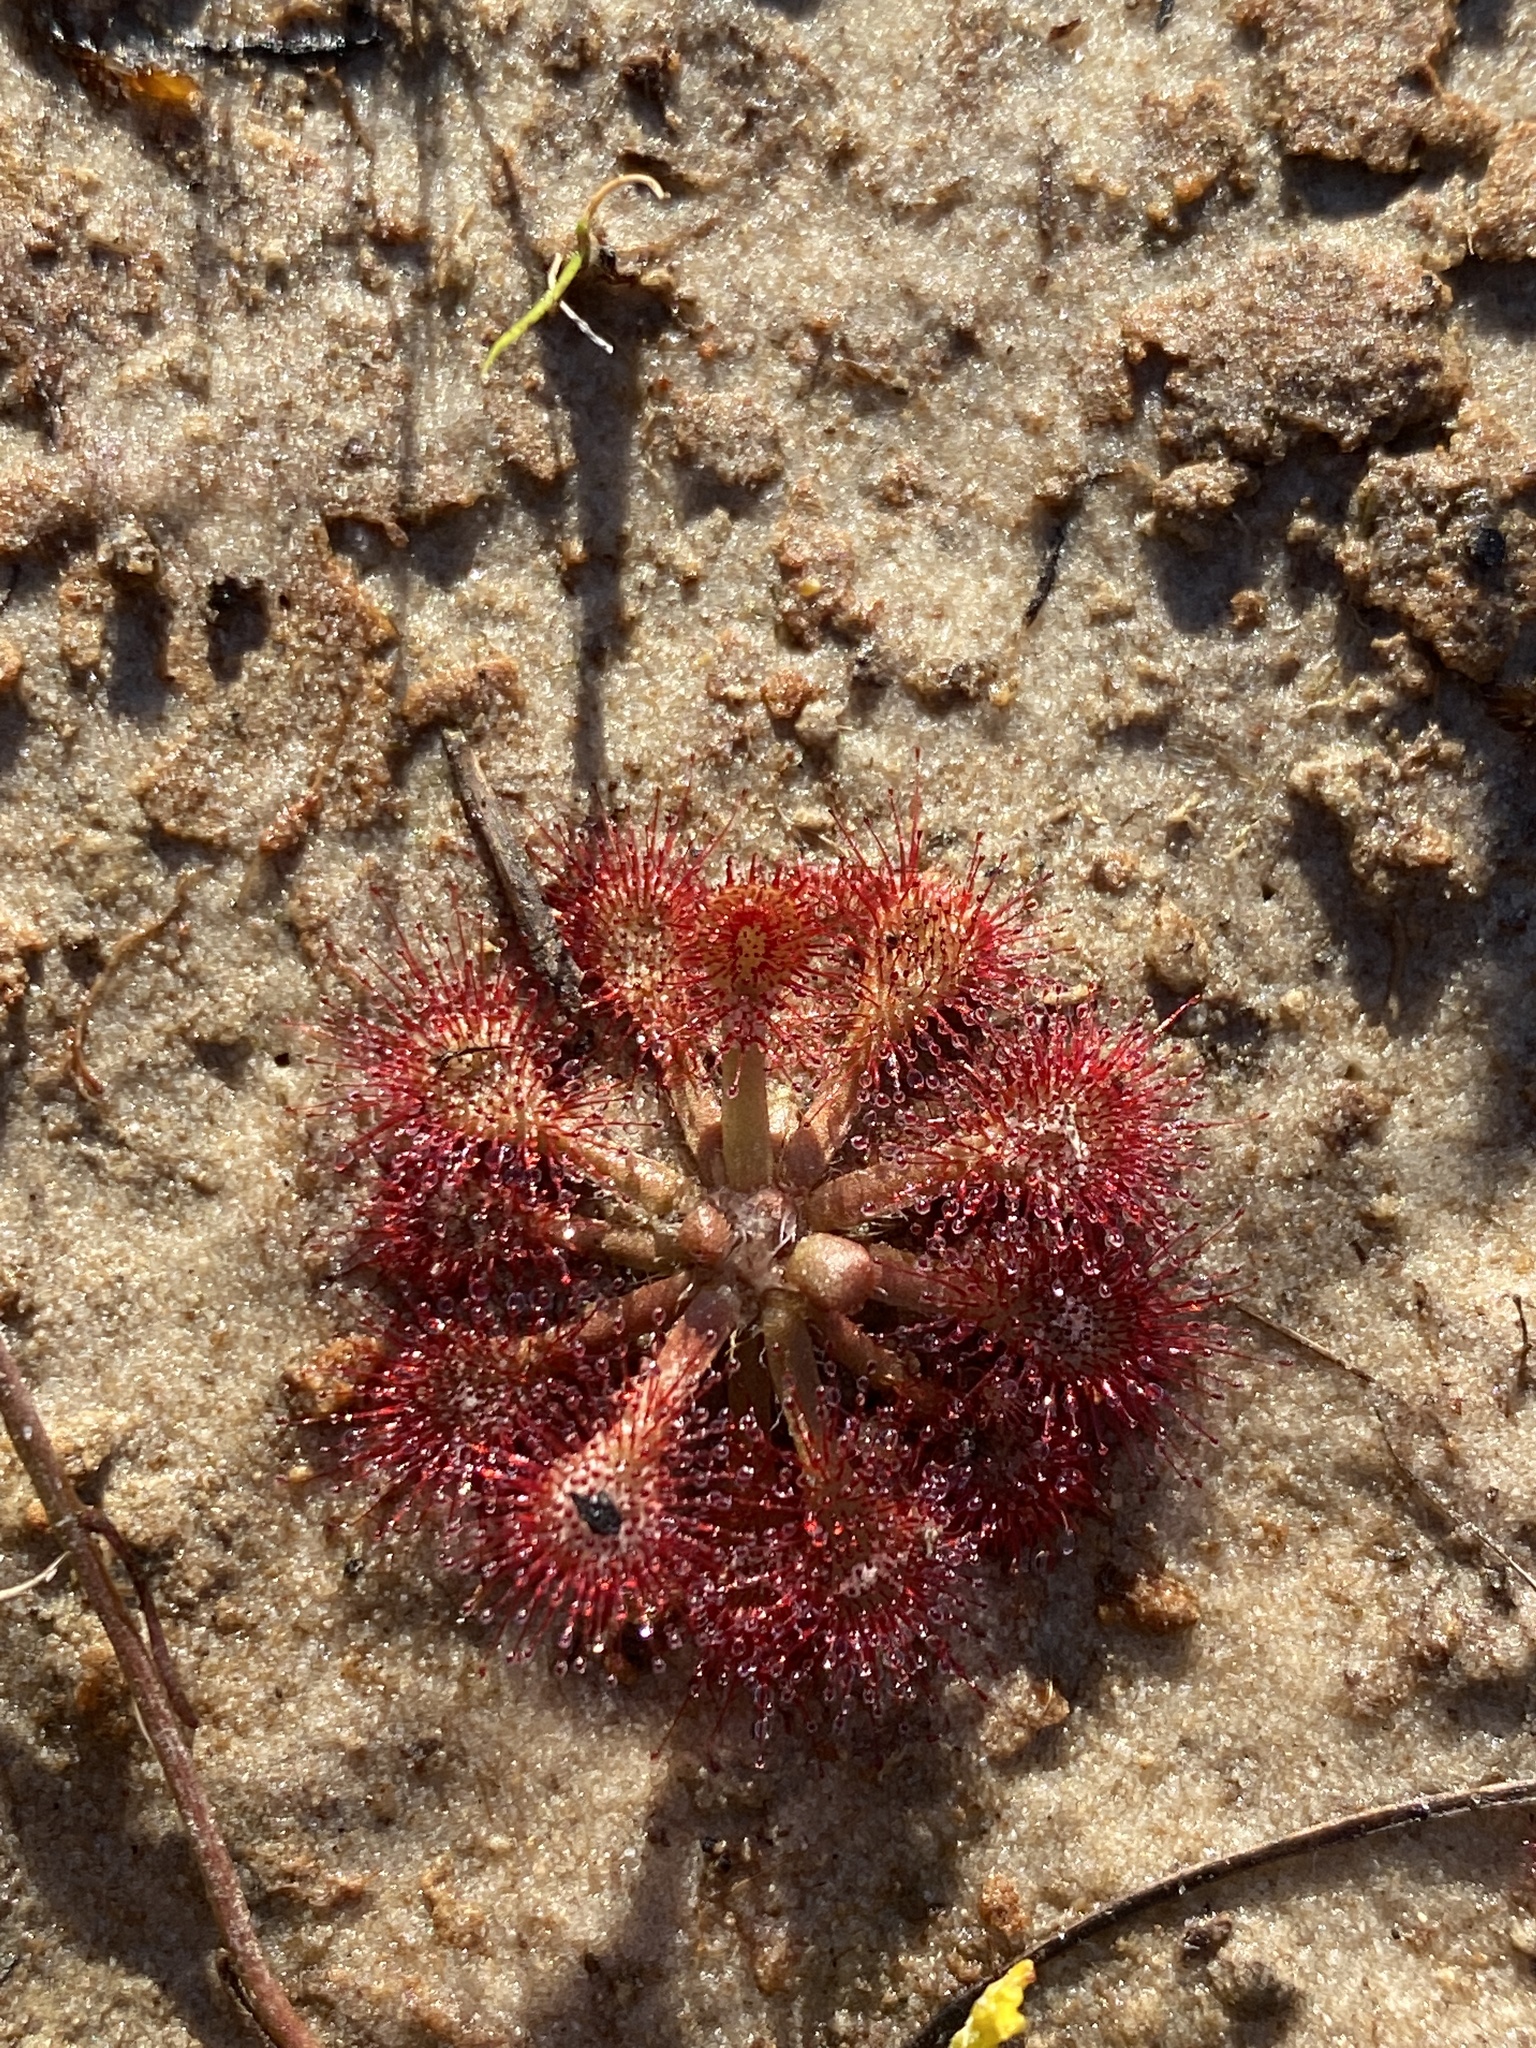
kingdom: Plantae
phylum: Tracheophyta
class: Magnoliopsida
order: Caryophyllales
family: Droseraceae
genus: Drosera
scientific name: Drosera capillaris
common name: Pink sundew
